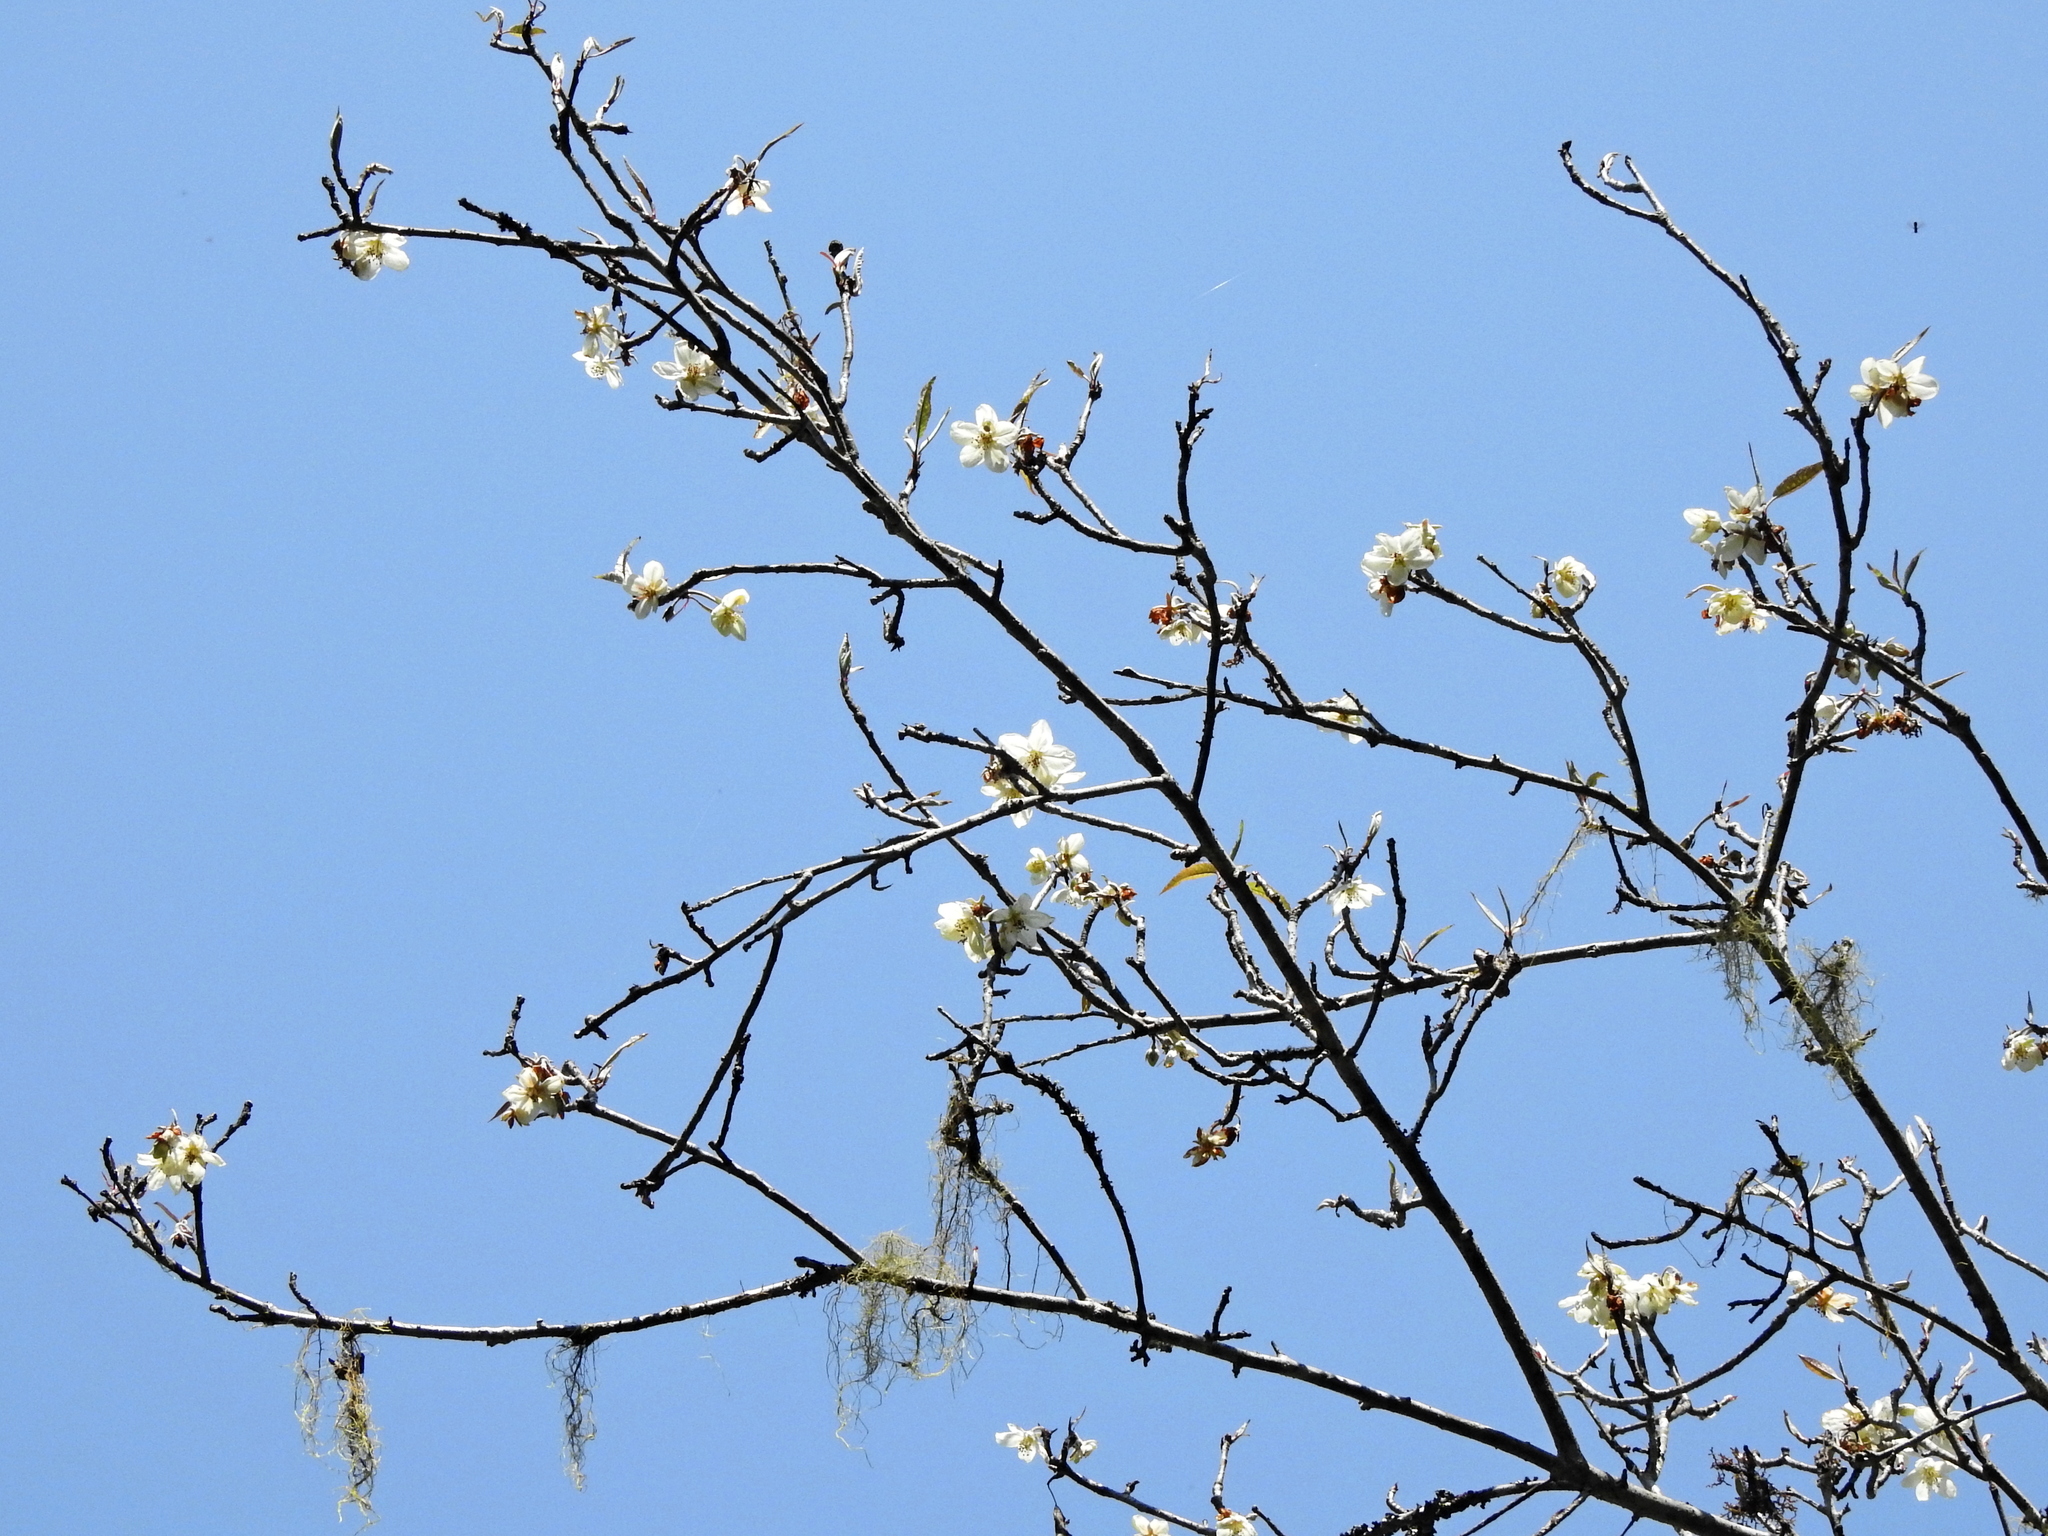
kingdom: Plantae
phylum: Tracheophyta
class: Magnoliopsida
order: Rosales
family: Rosaceae
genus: Malus
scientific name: Malus
